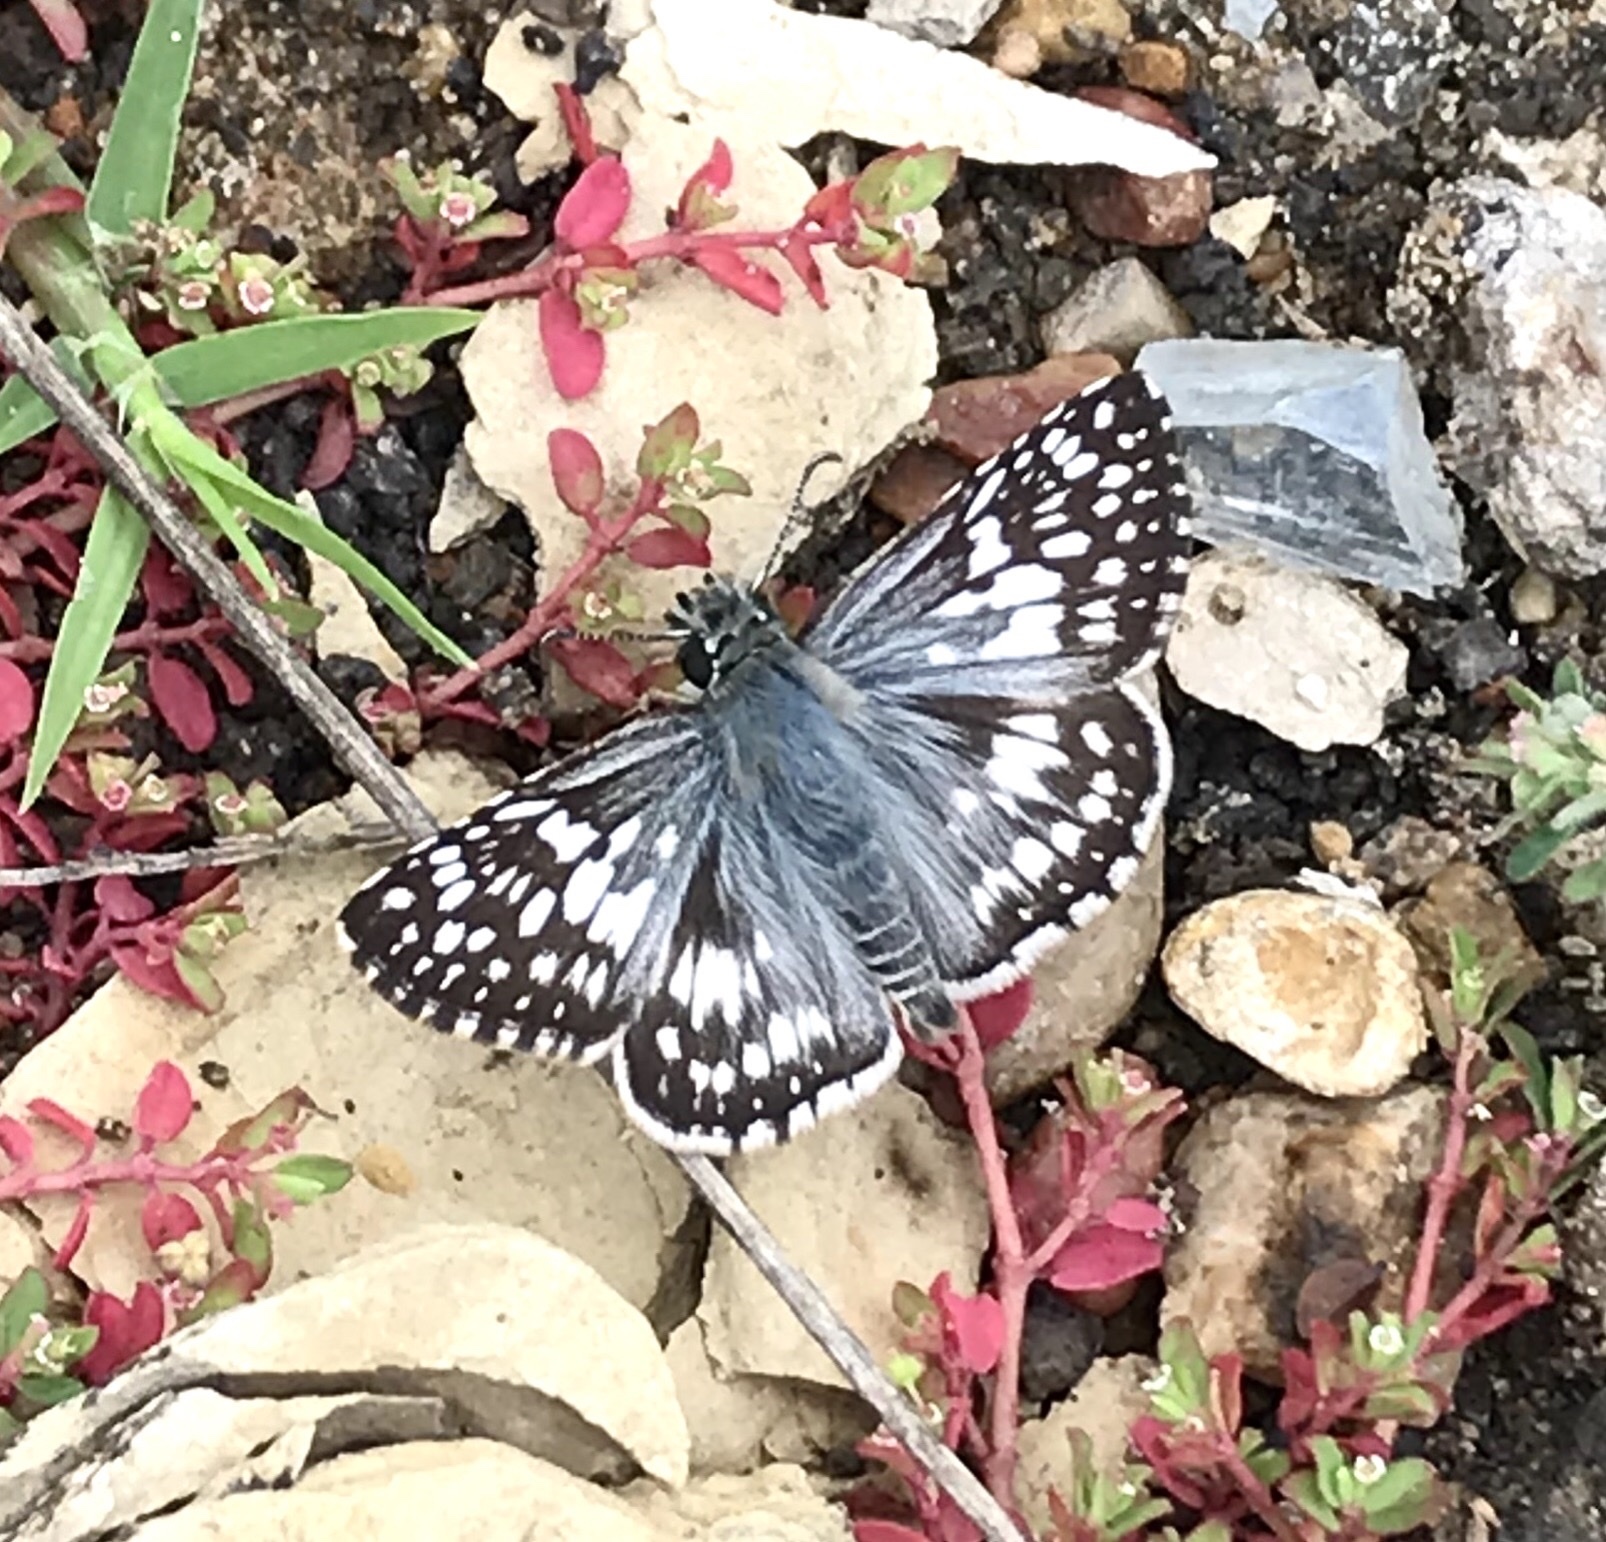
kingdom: Animalia
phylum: Arthropoda
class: Insecta
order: Lepidoptera
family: Hesperiidae
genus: Burnsius
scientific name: Burnsius communis
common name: Common checkered-skipper
